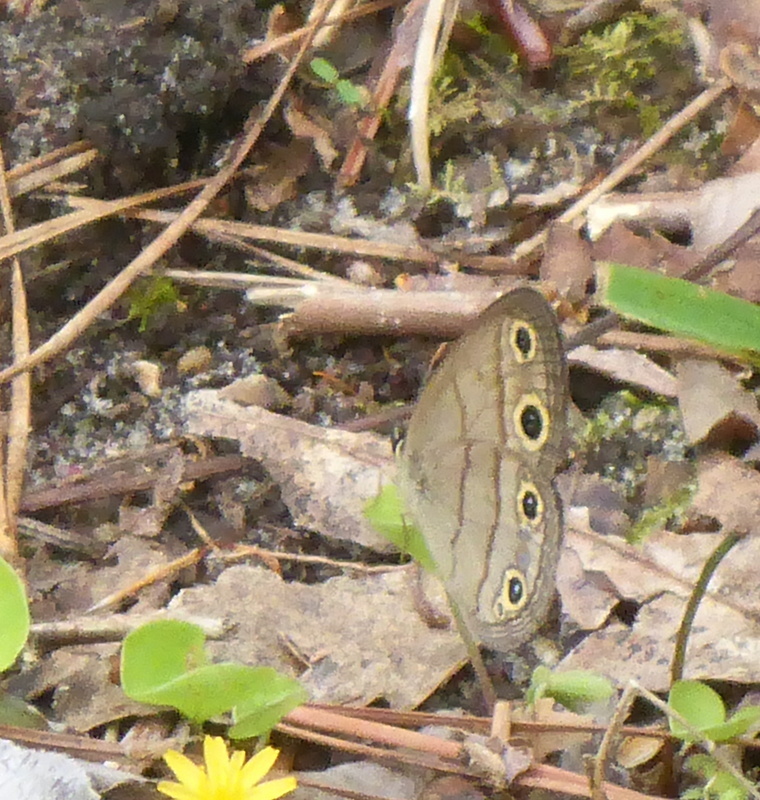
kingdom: Animalia
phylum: Arthropoda
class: Insecta
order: Lepidoptera
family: Nymphalidae
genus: Euptychia
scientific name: Euptychia cymela
